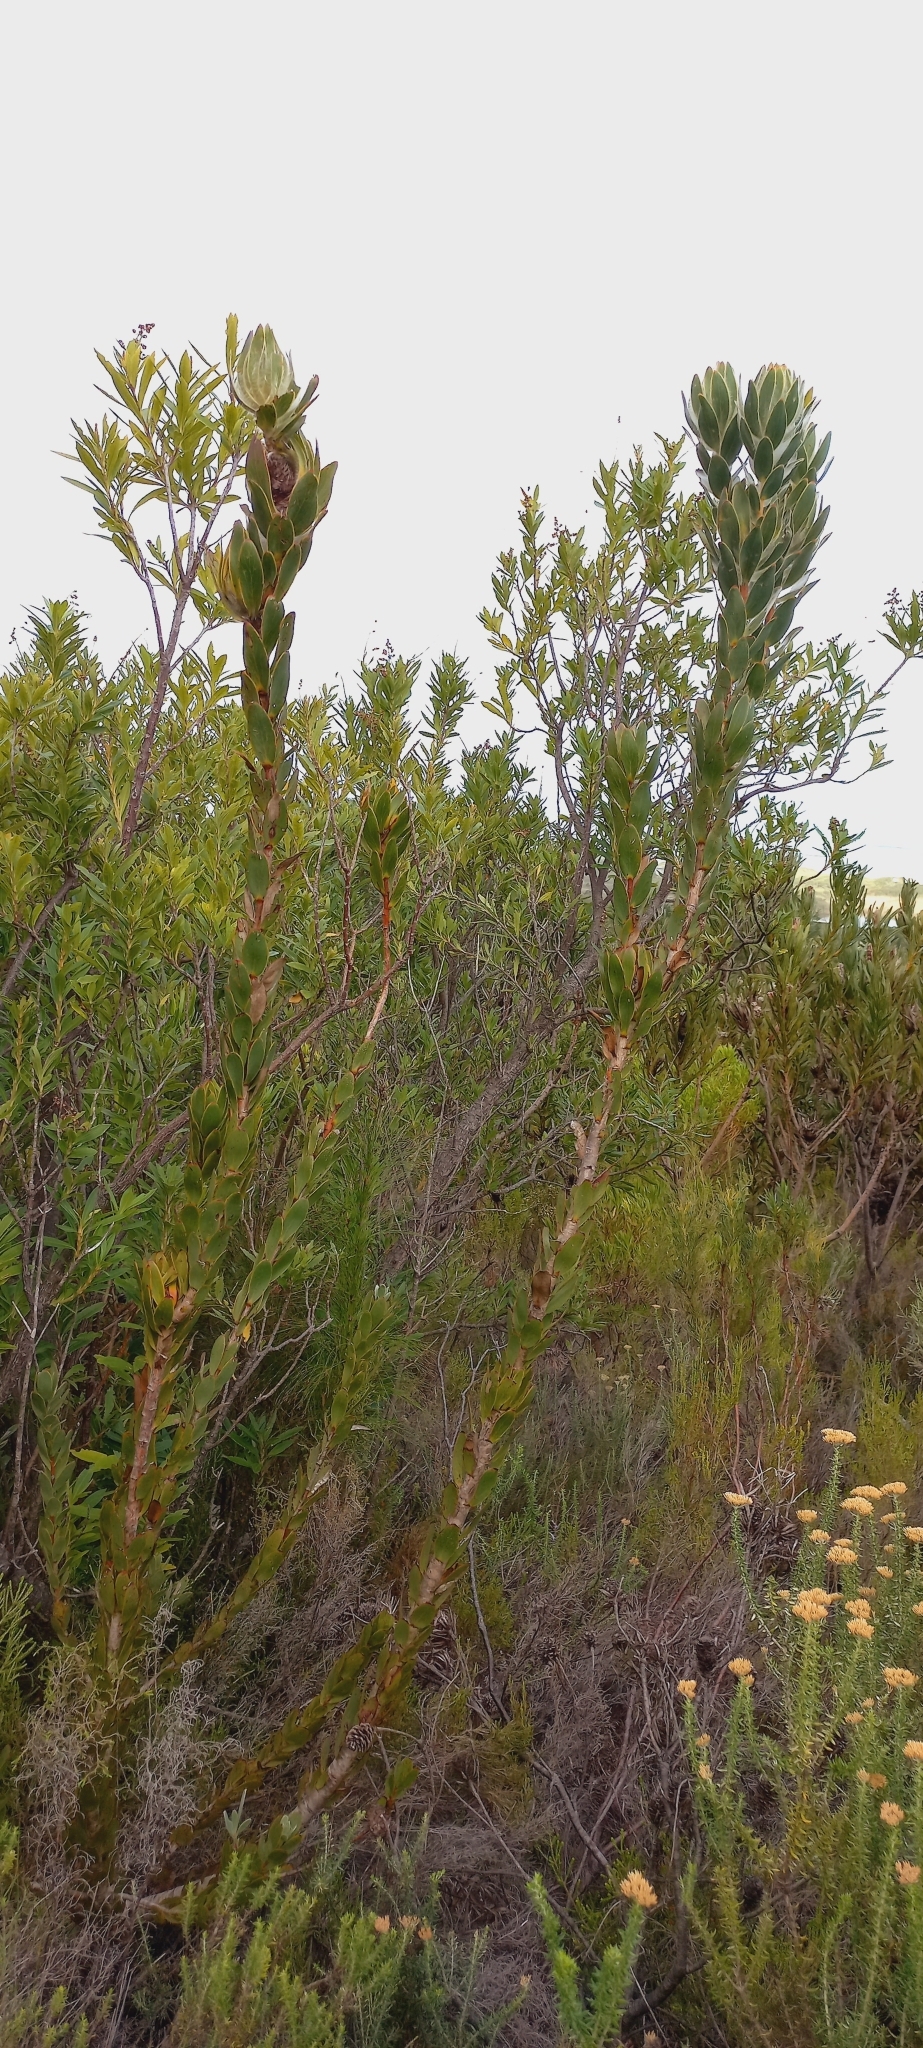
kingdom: Plantae
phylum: Tracheophyta
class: Magnoliopsida
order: Proteales
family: Proteaceae
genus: Leucadendron
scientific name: Leucadendron nervosum
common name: Silky-ruff conebush
